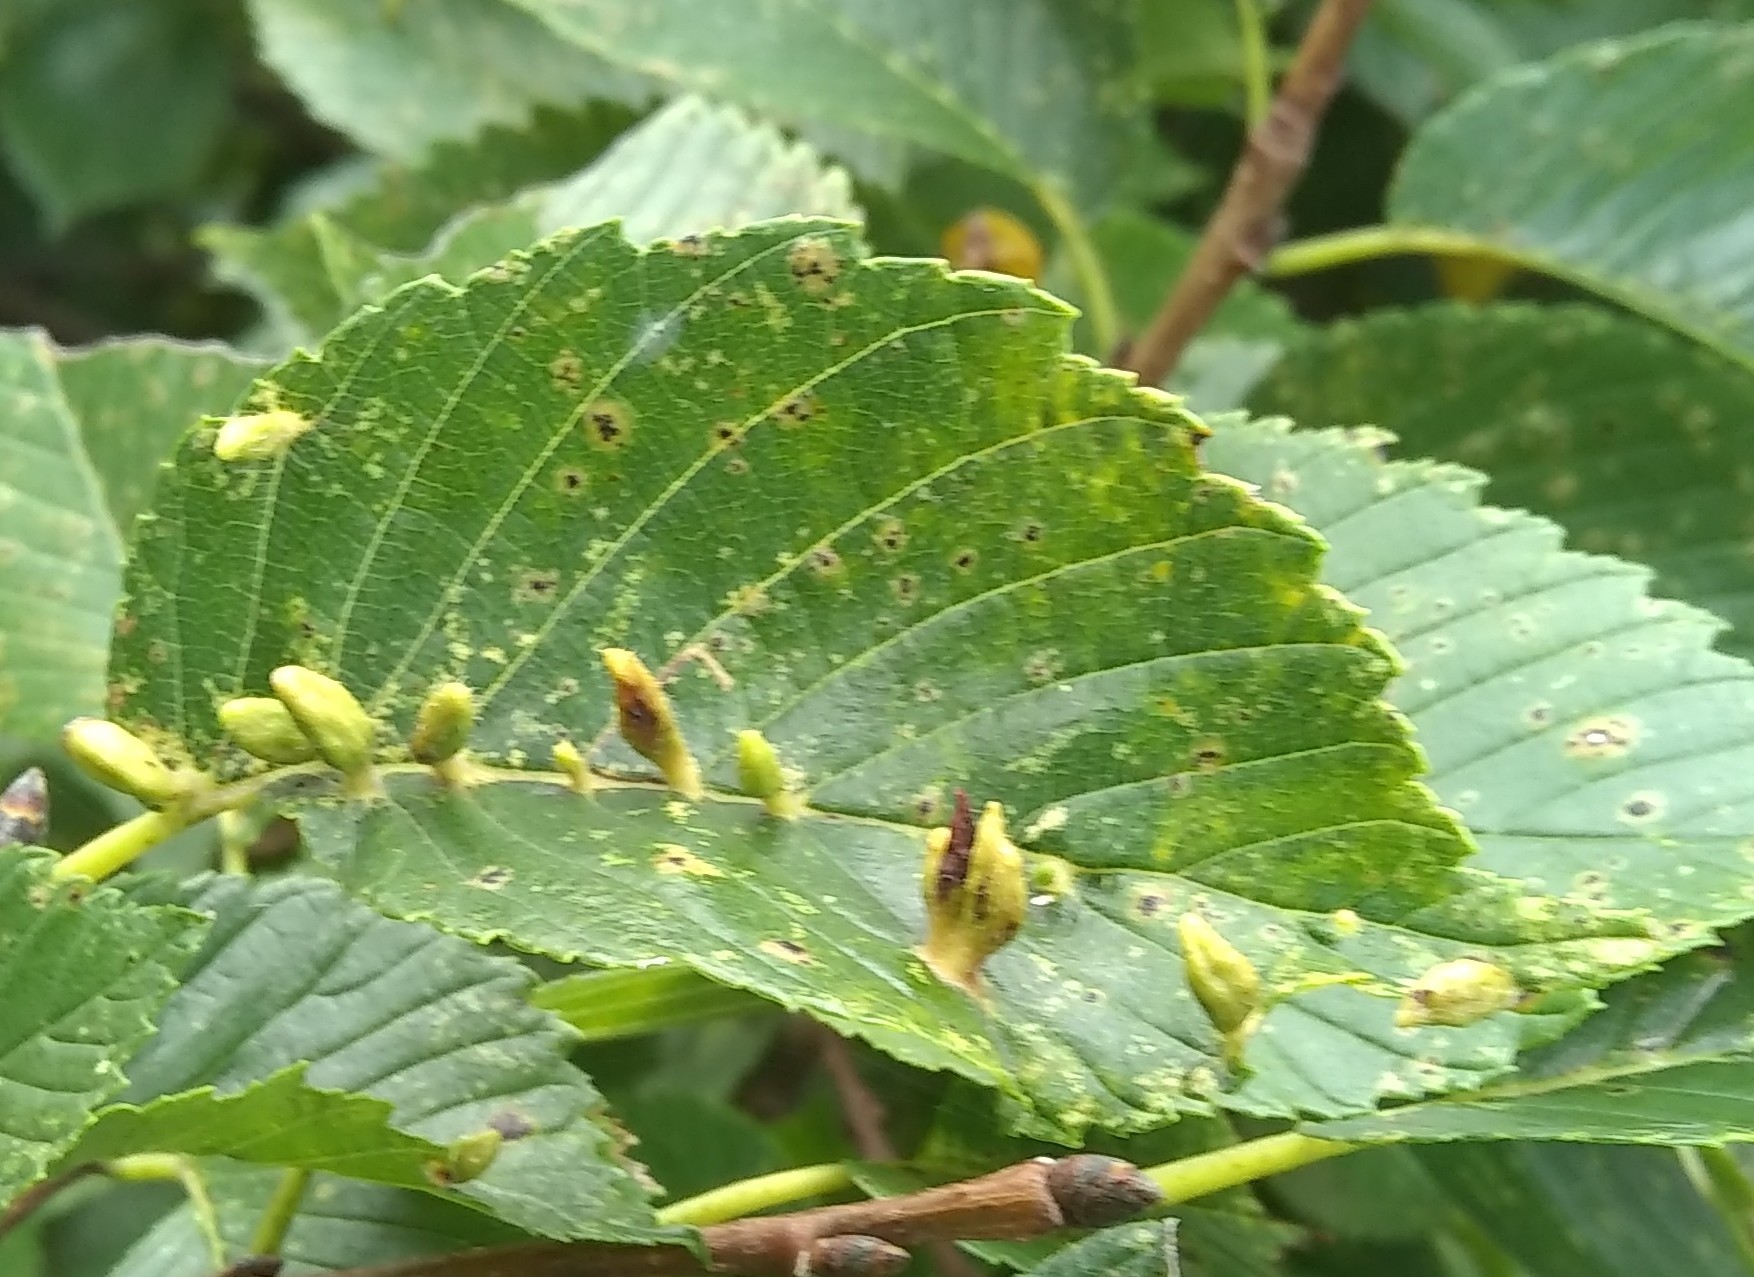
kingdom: Animalia
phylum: Arthropoda
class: Arachnida
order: Trombidiformes
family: Eriophyidae
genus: Aceria
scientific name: Aceria
